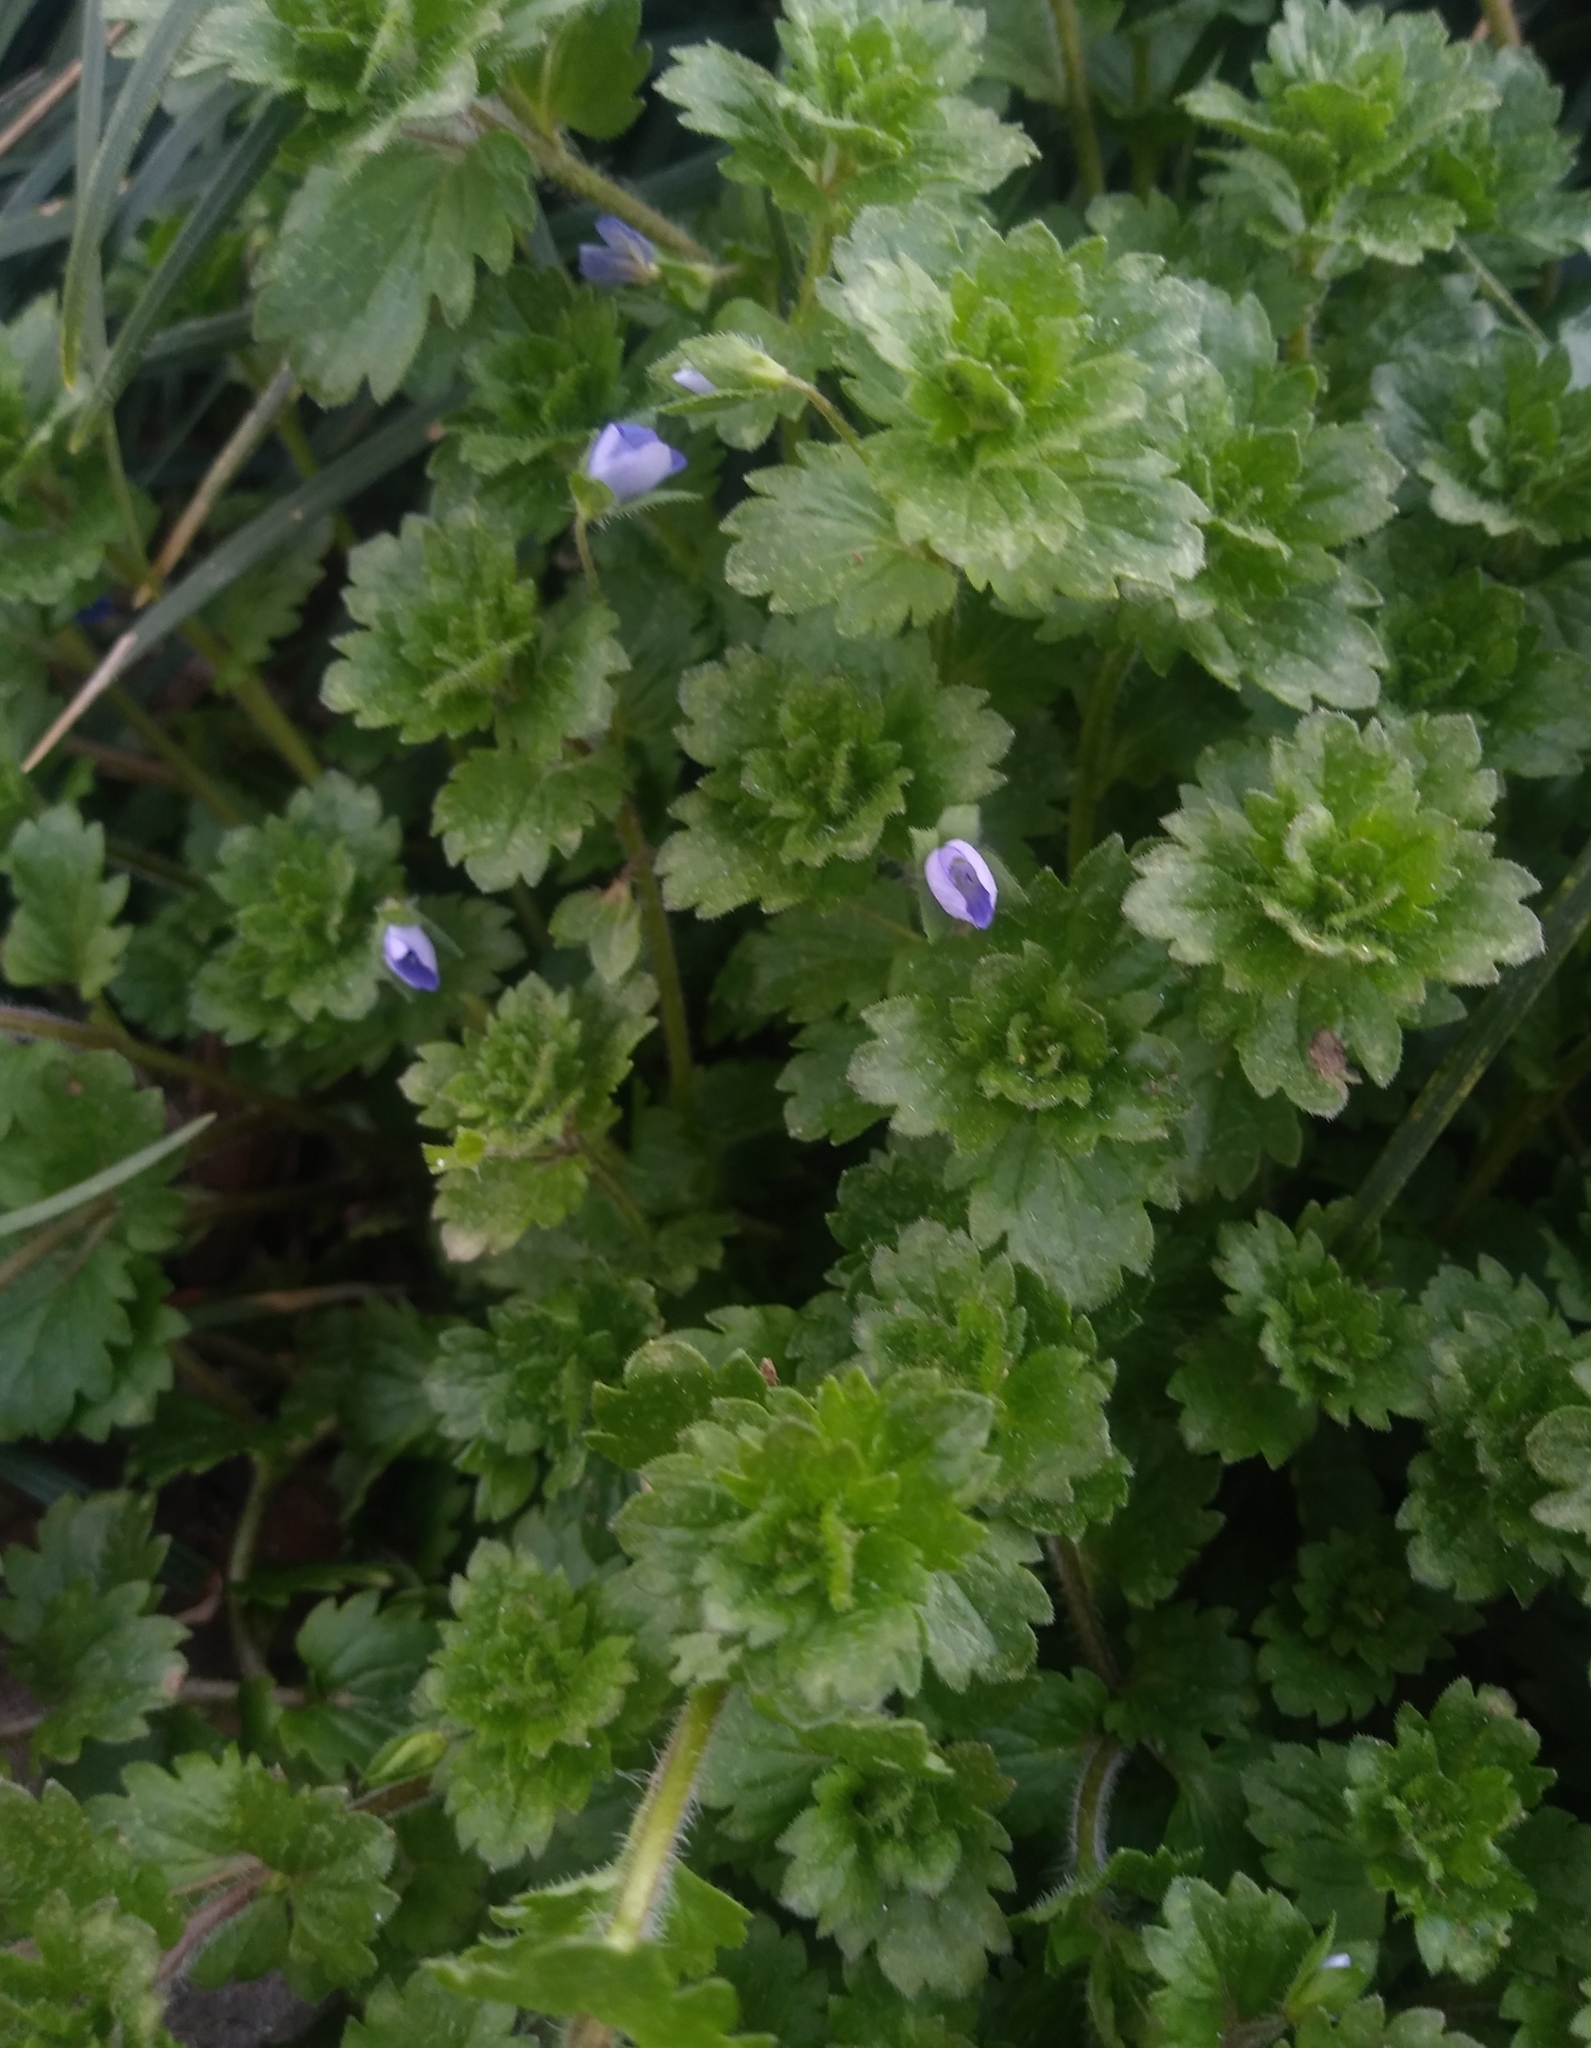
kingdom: Plantae
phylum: Tracheophyta
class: Magnoliopsida
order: Lamiales
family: Plantaginaceae
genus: Veronica
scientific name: Veronica persica
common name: Common field-speedwell
